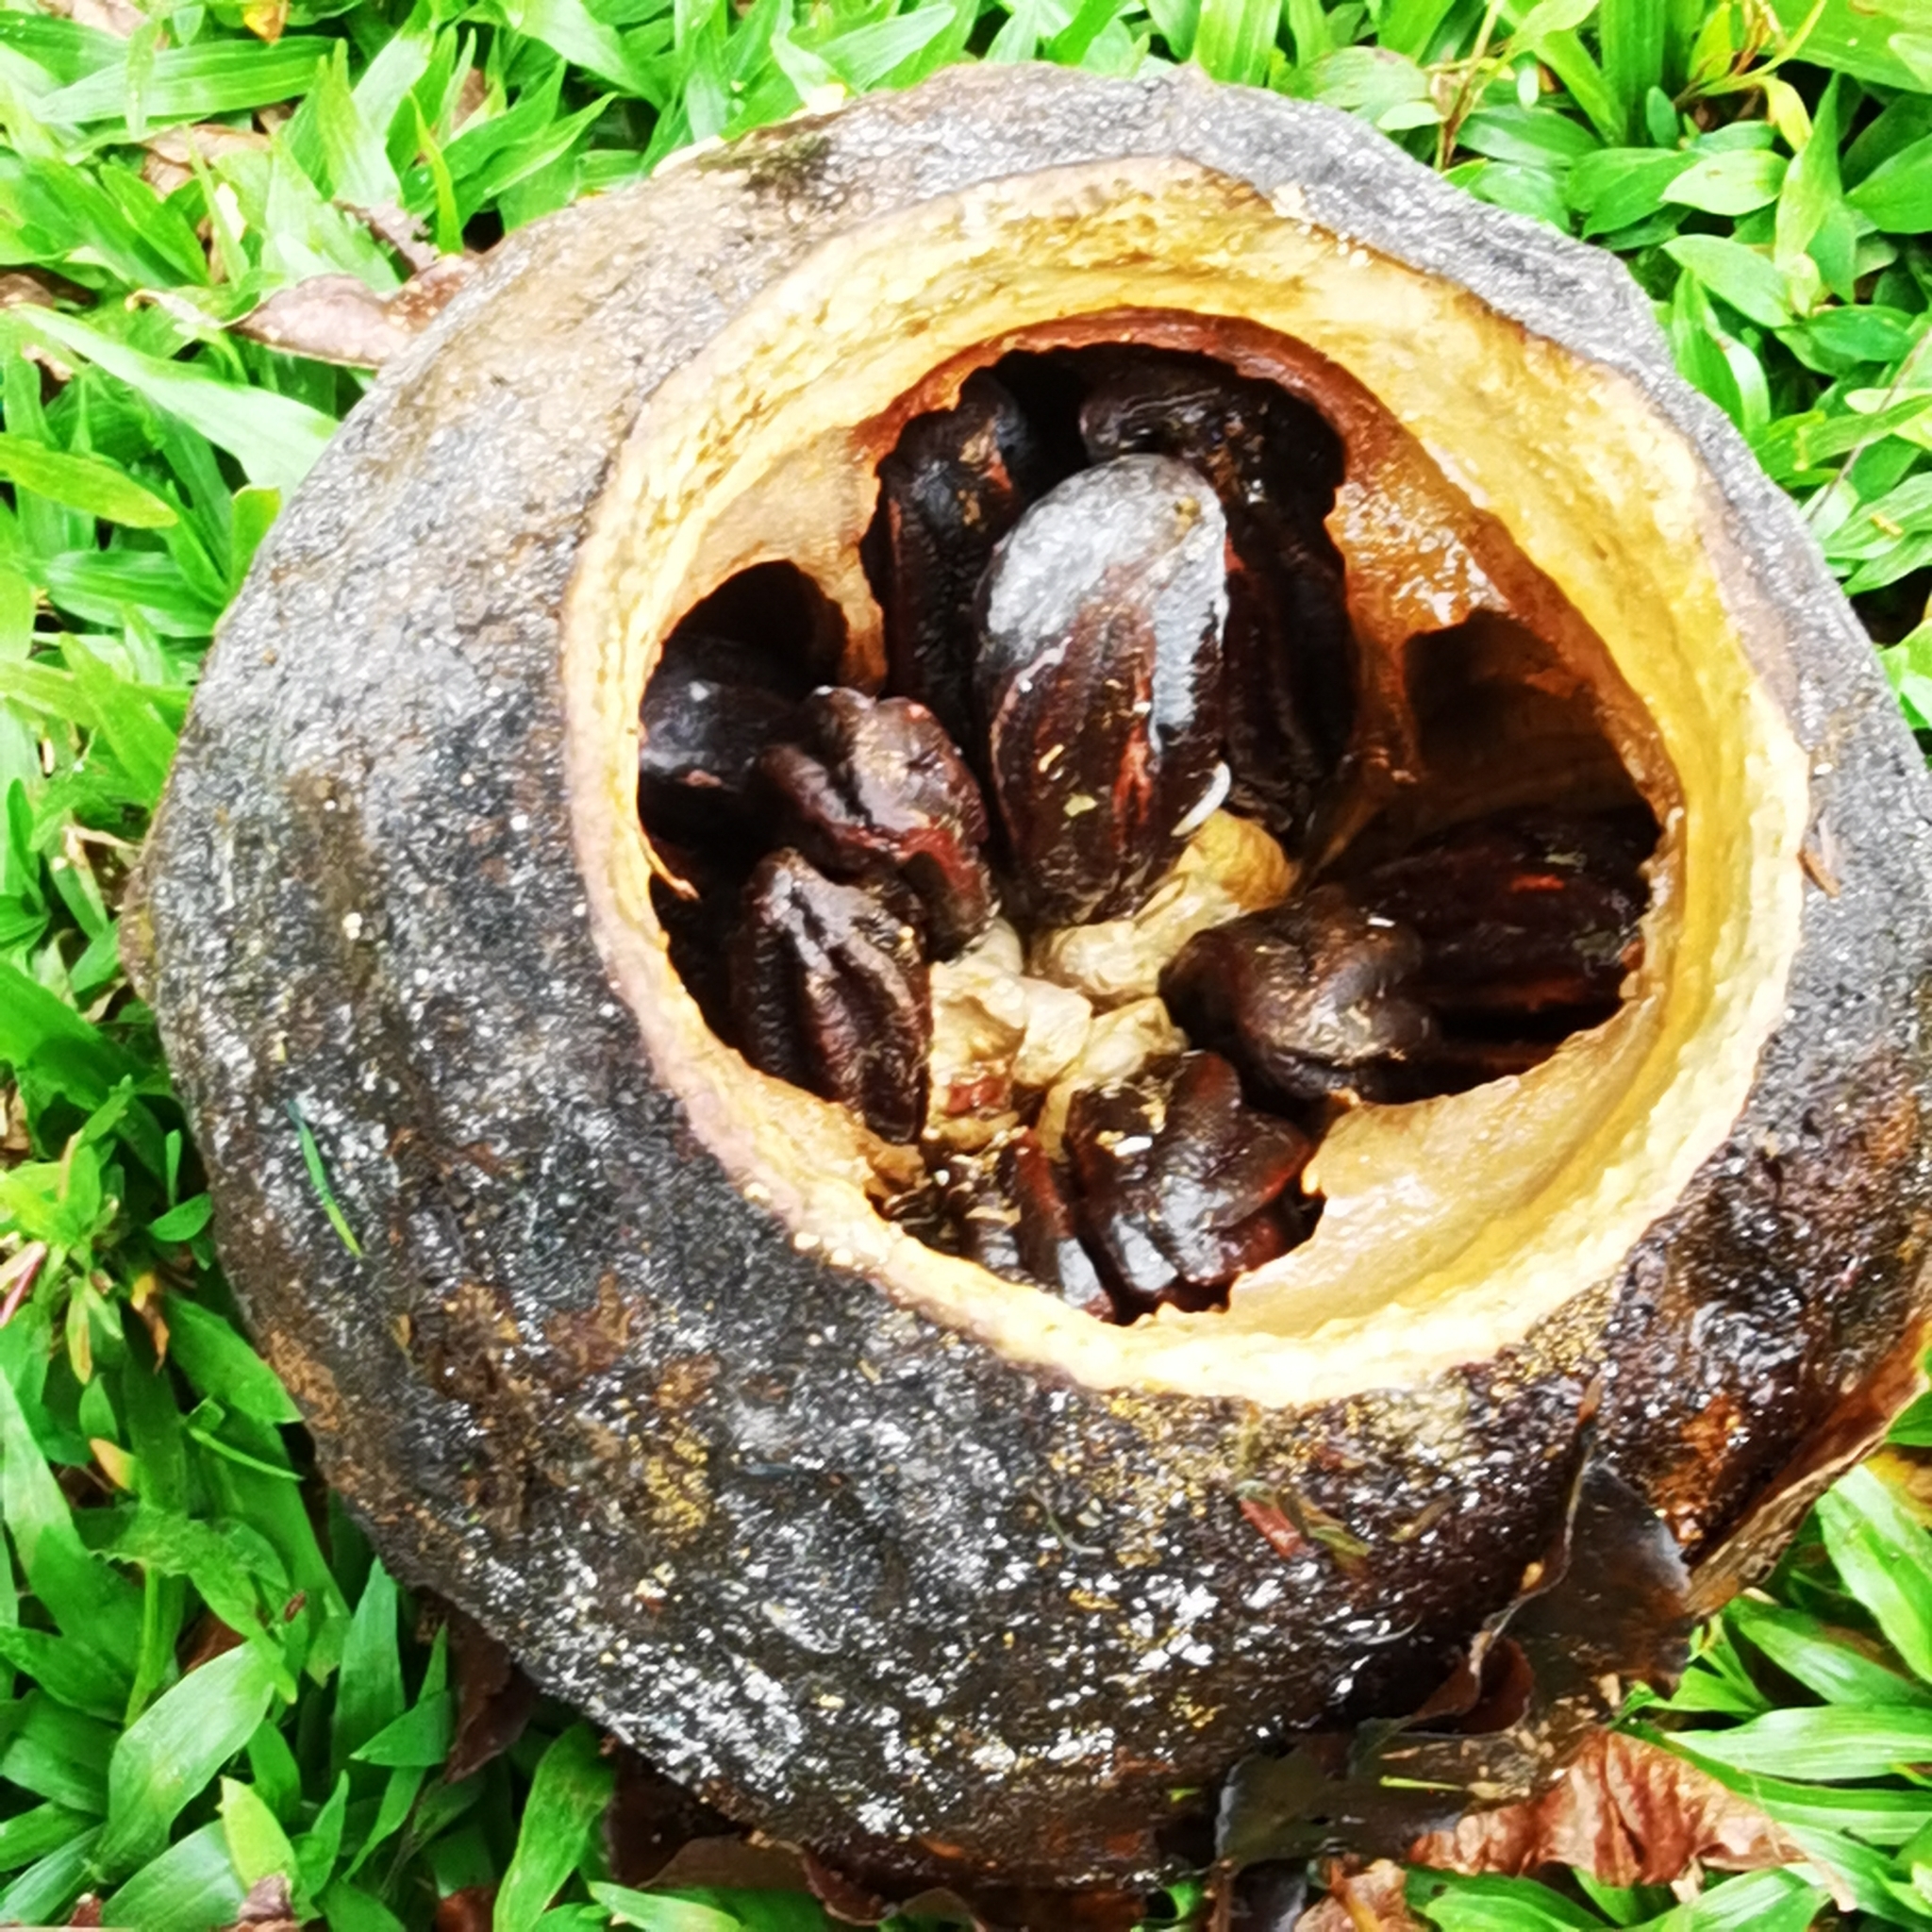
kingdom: Plantae
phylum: Tracheophyta
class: Magnoliopsida
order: Ericales
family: Lecythidaceae
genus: Lecythis
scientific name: Lecythis ampla
